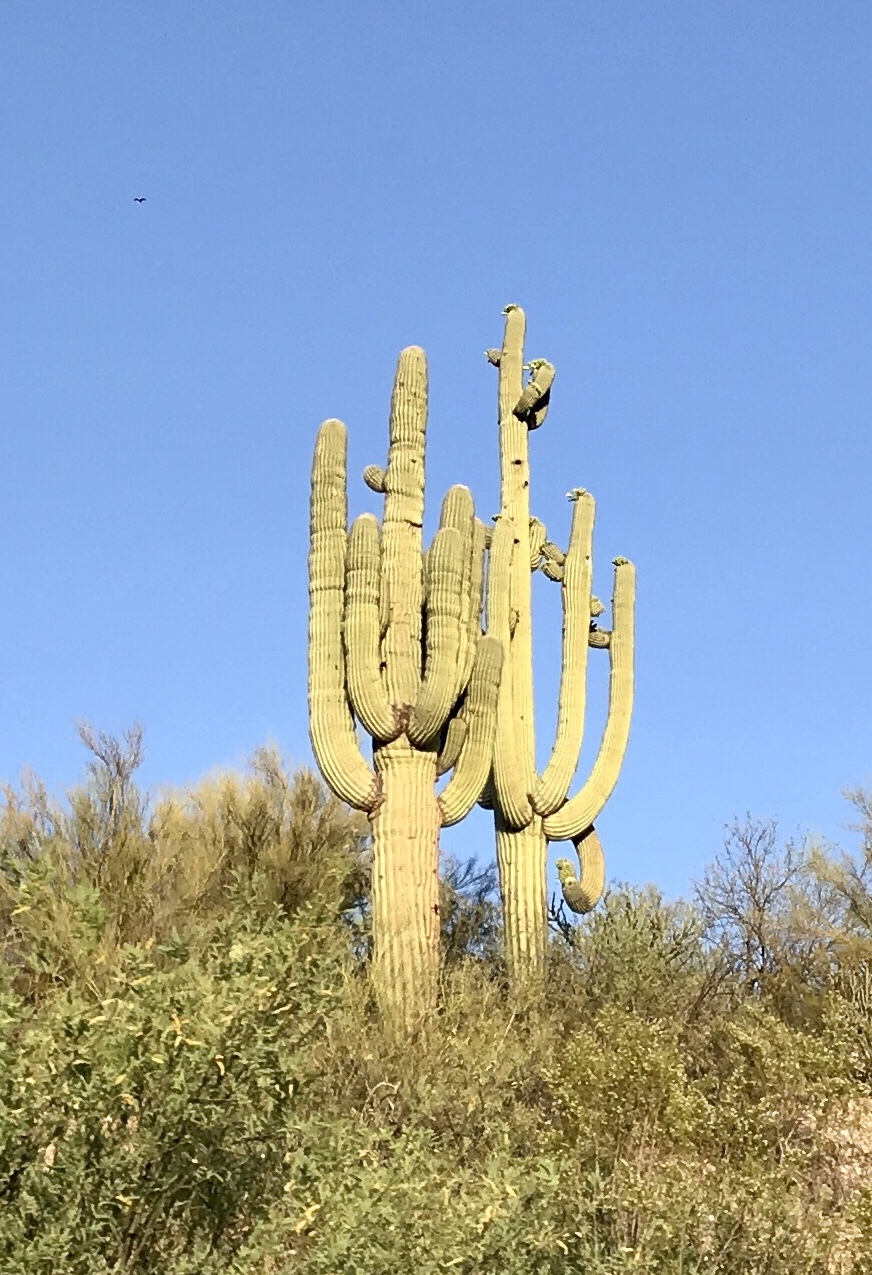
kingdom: Plantae
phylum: Tracheophyta
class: Magnoliopsida
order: Caryophyllales
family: Cactaceae
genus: Carnegiea
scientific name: Carnegiea gigantea
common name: Saguaro
